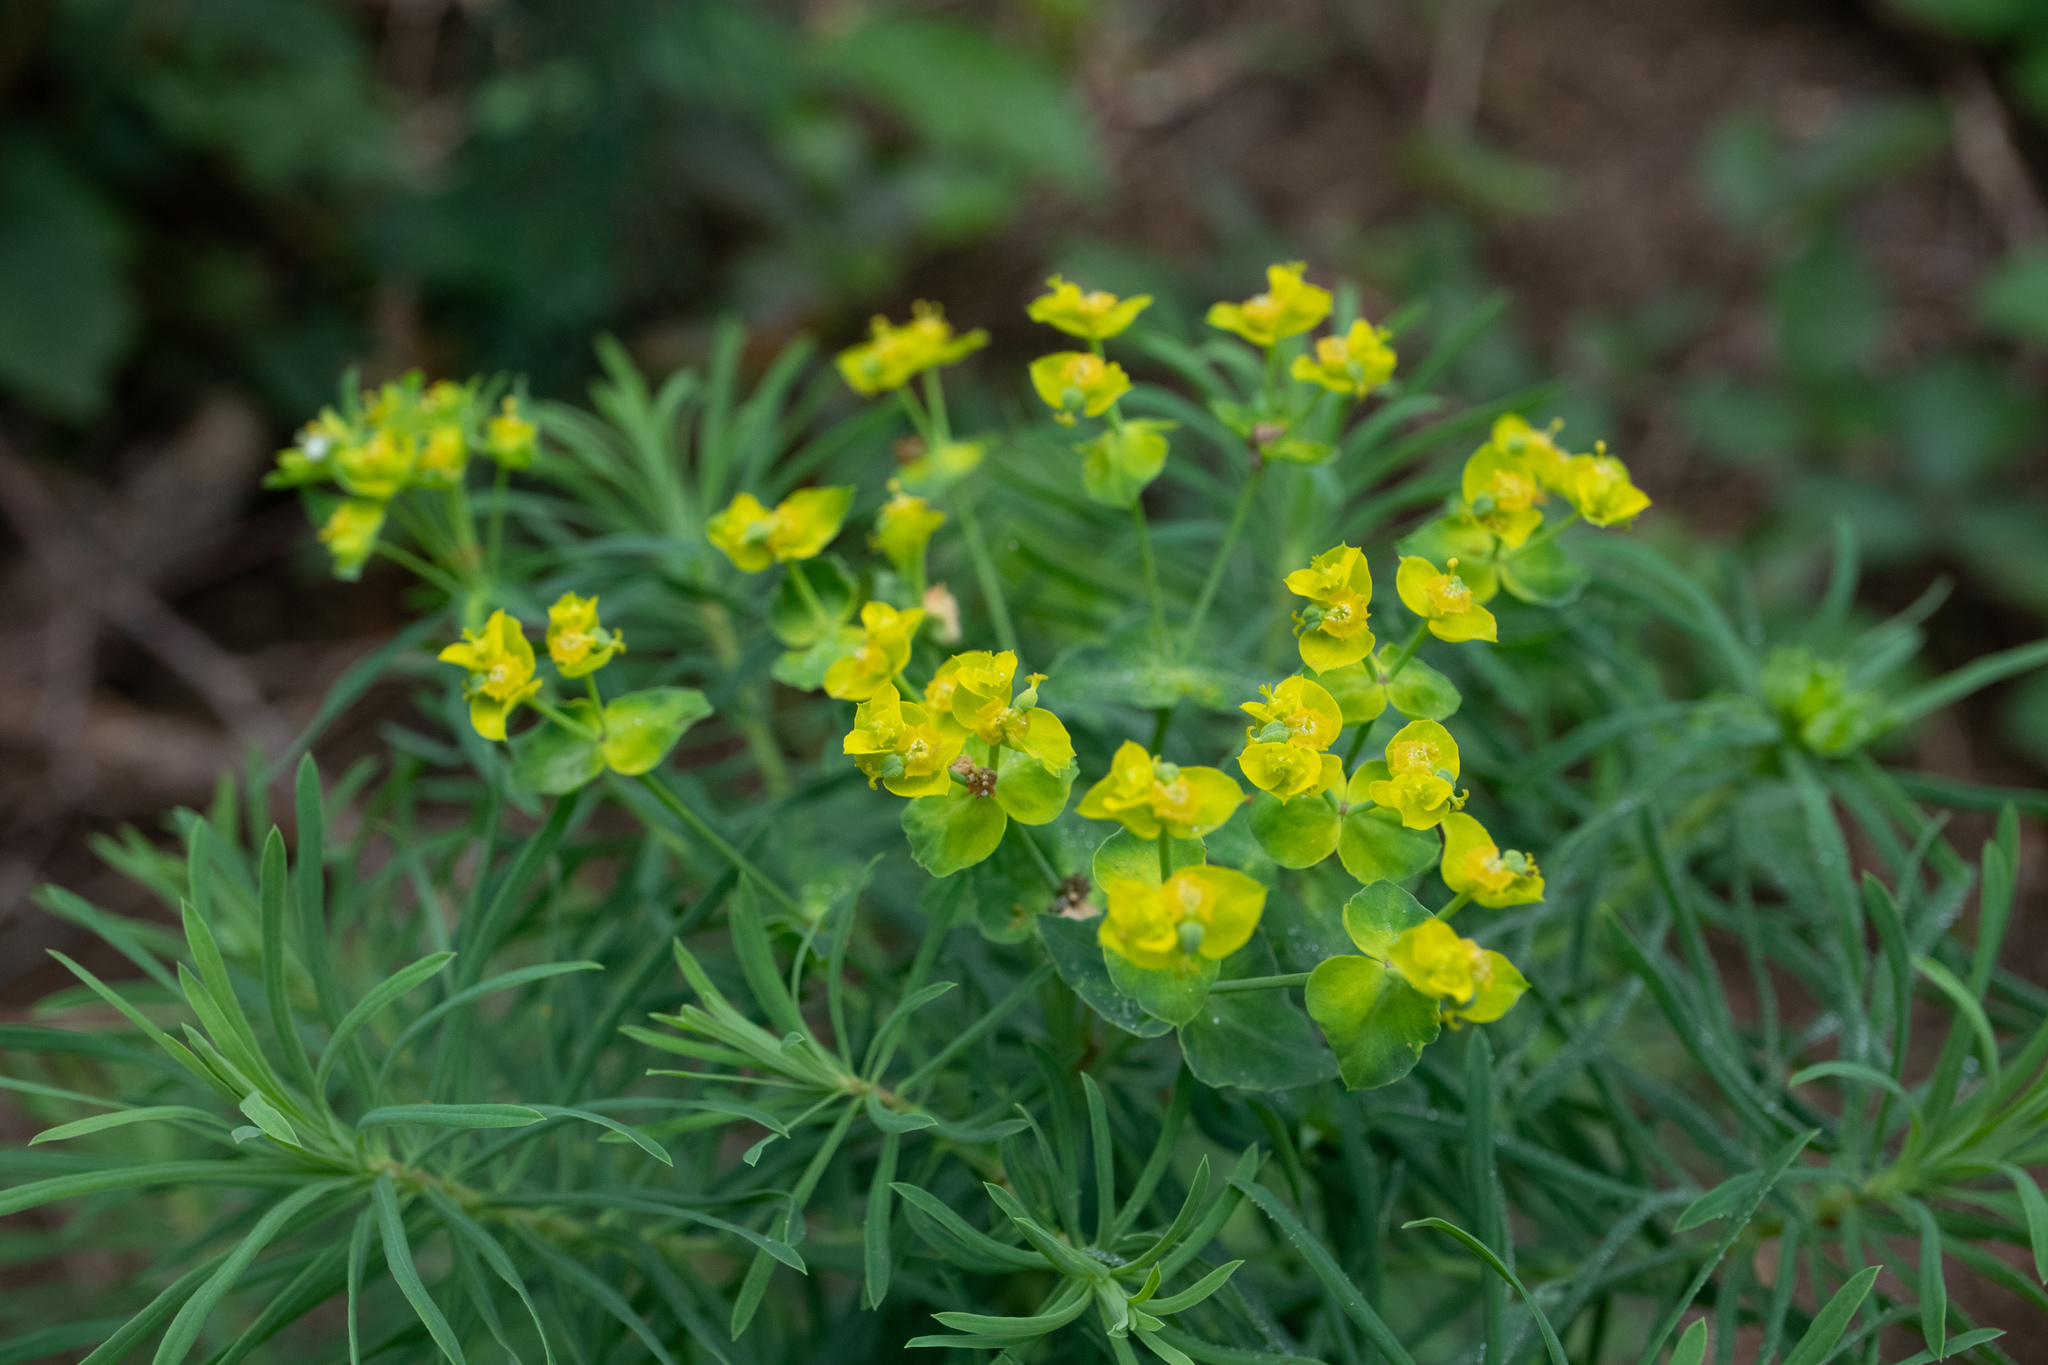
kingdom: Plantae
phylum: Tracheophyta
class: Magnoliopsida
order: Malpighiales
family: Euphorbiaceae
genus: Euphorbia
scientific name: Euphorbia cyparissias
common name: Cypress spurge
